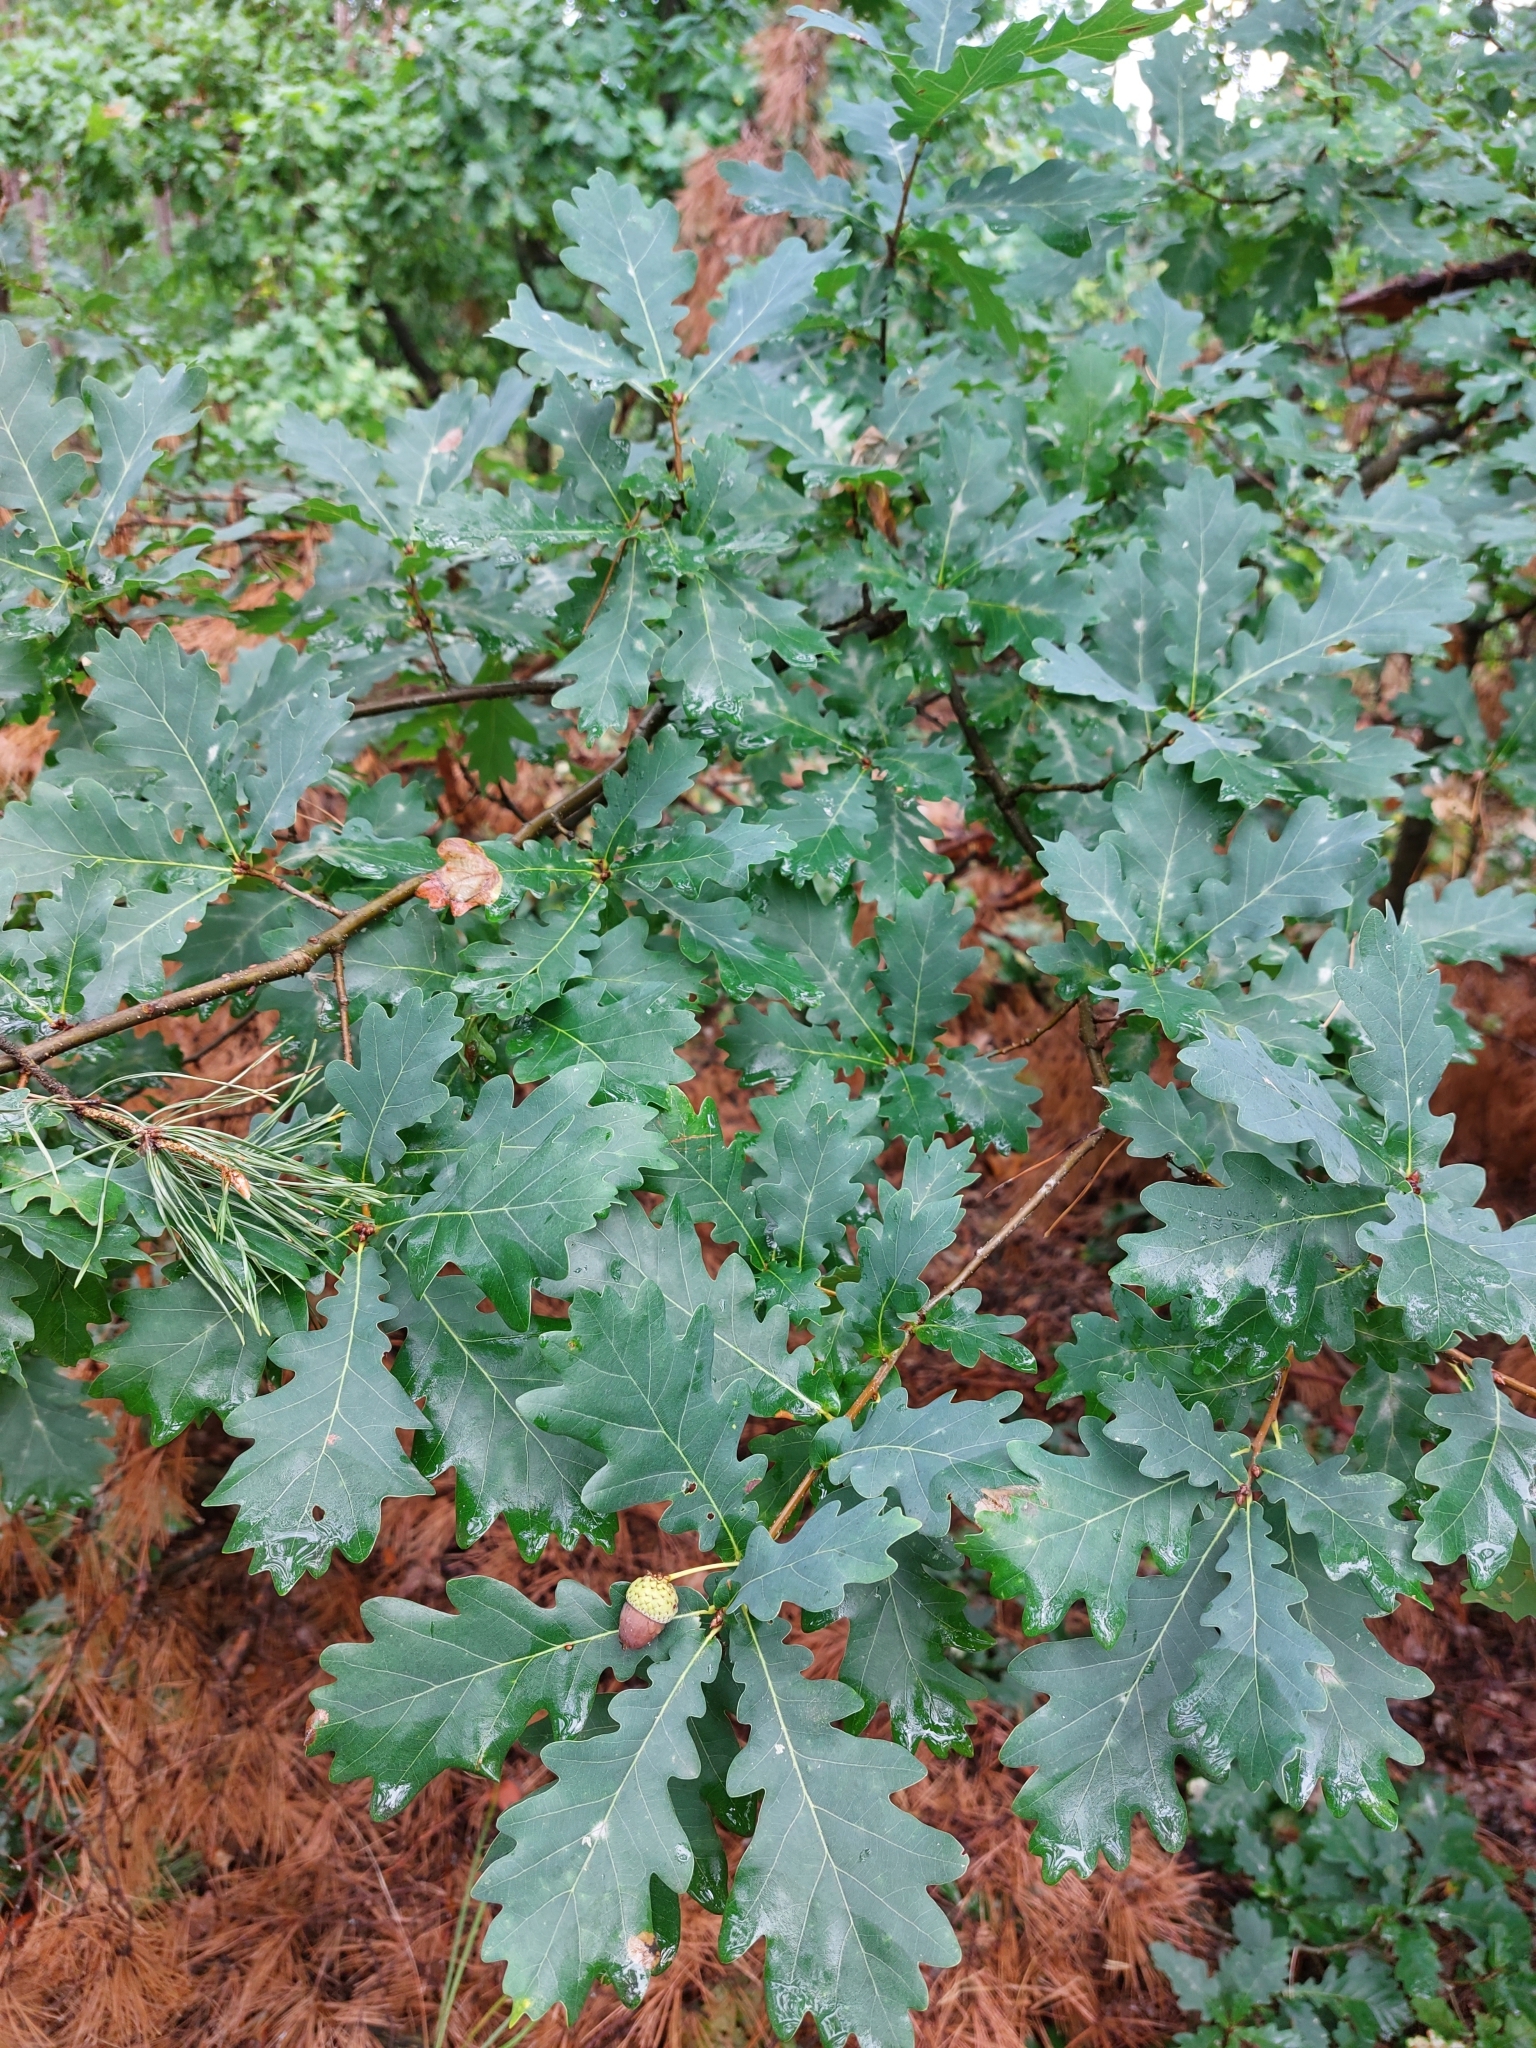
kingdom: Plantae
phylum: Tracheophyta
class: Magnoliopsida
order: Fagales
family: Fagaceae
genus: Quercus
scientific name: Quercus robur
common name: Pedunculate oak
